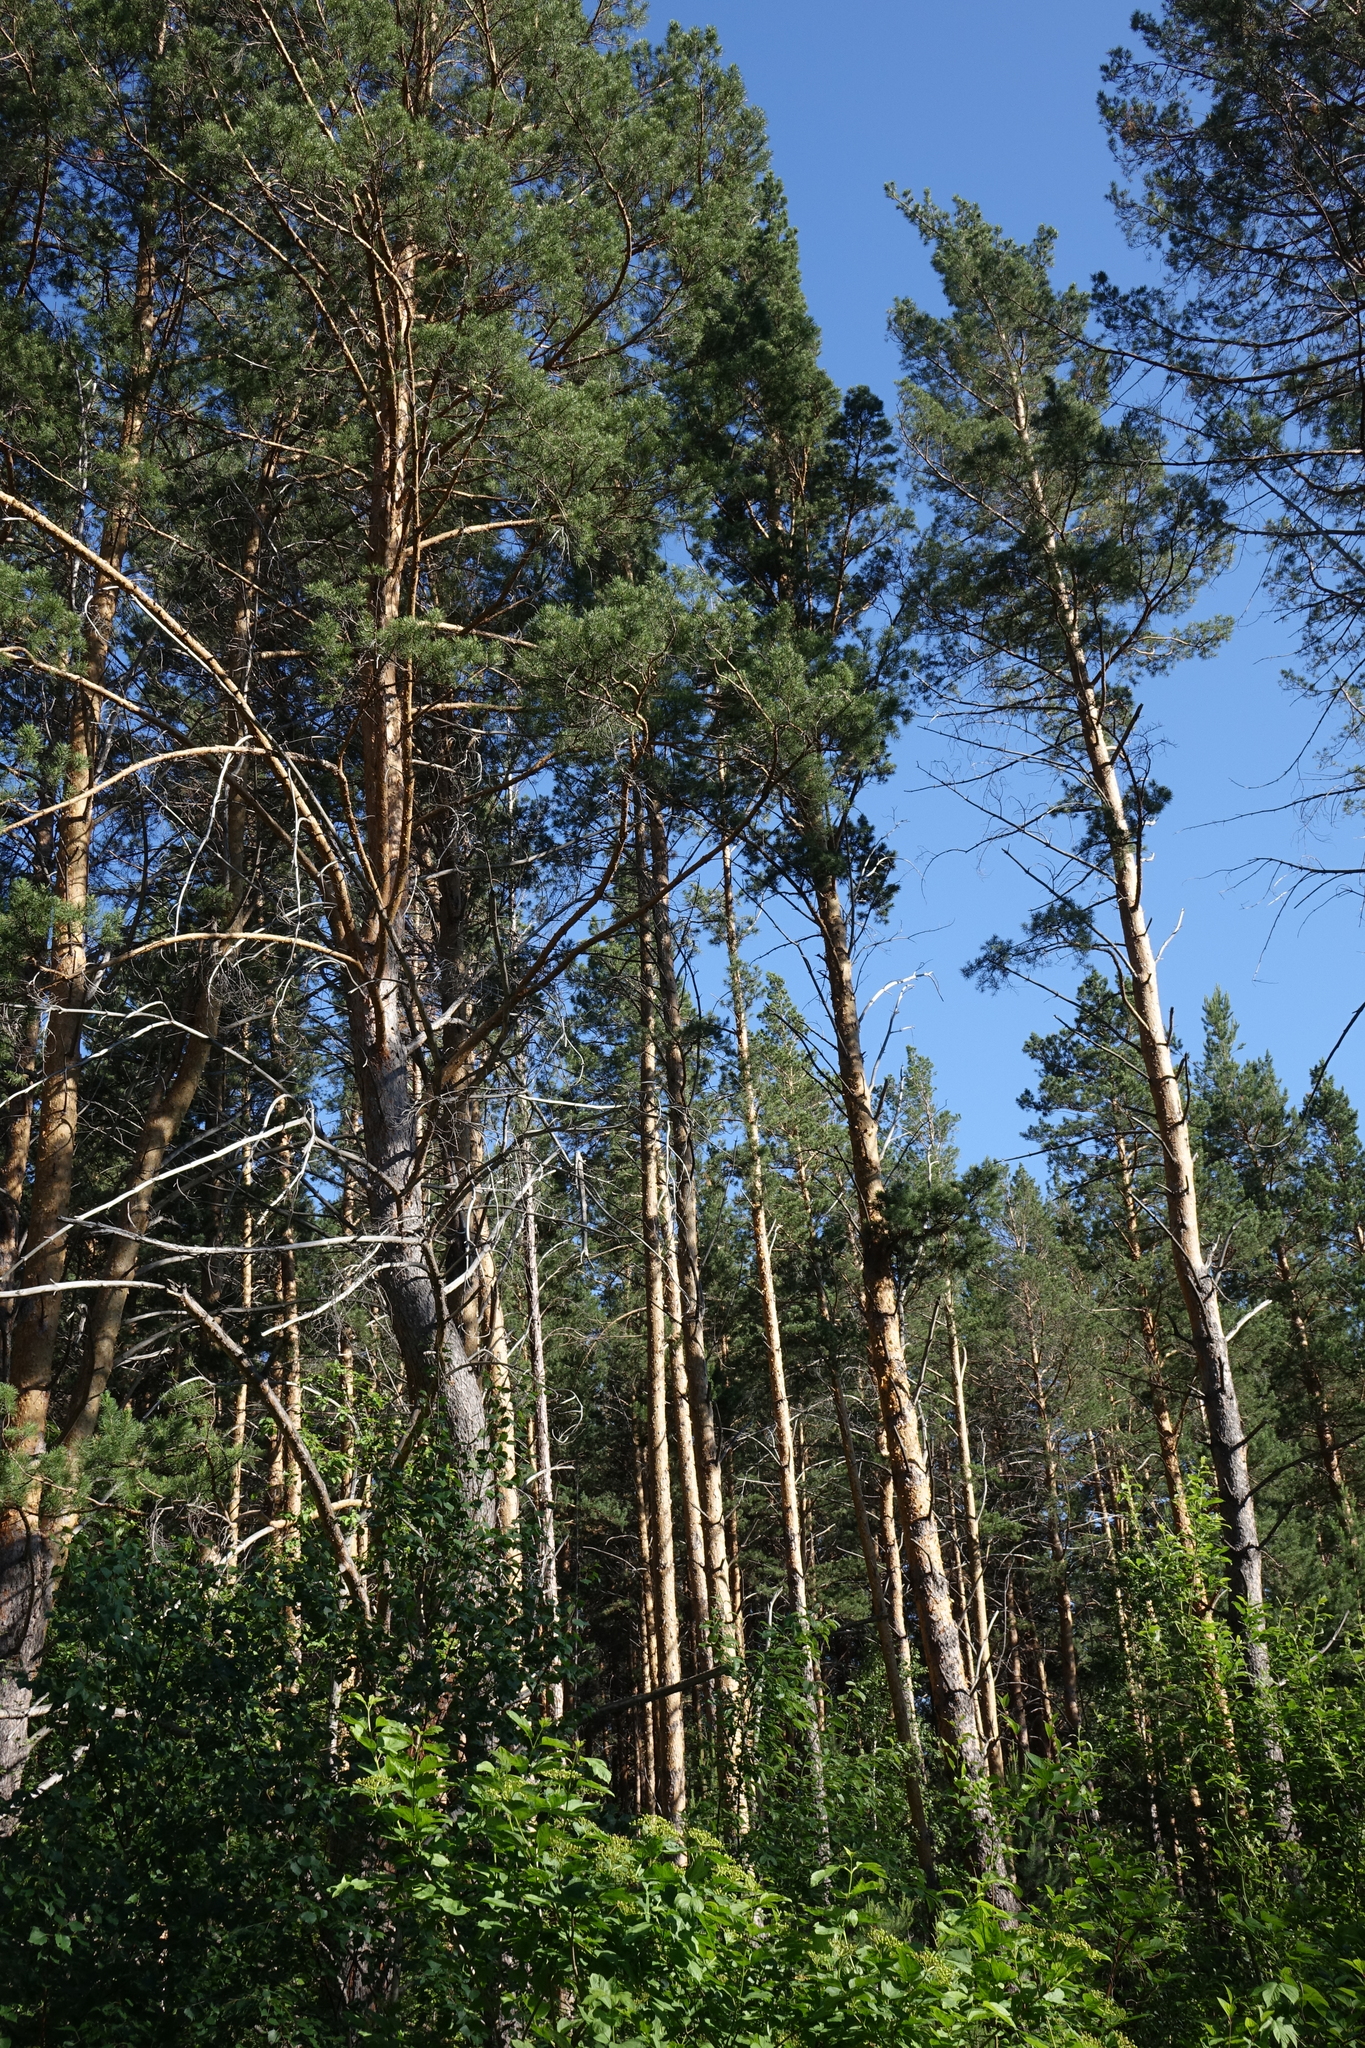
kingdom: Plantae
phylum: Tracheophyta
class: Pinopsida
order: Pinales
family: Pinaceae
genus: Pinus
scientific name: Pinus sylvestris
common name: Scots pine
